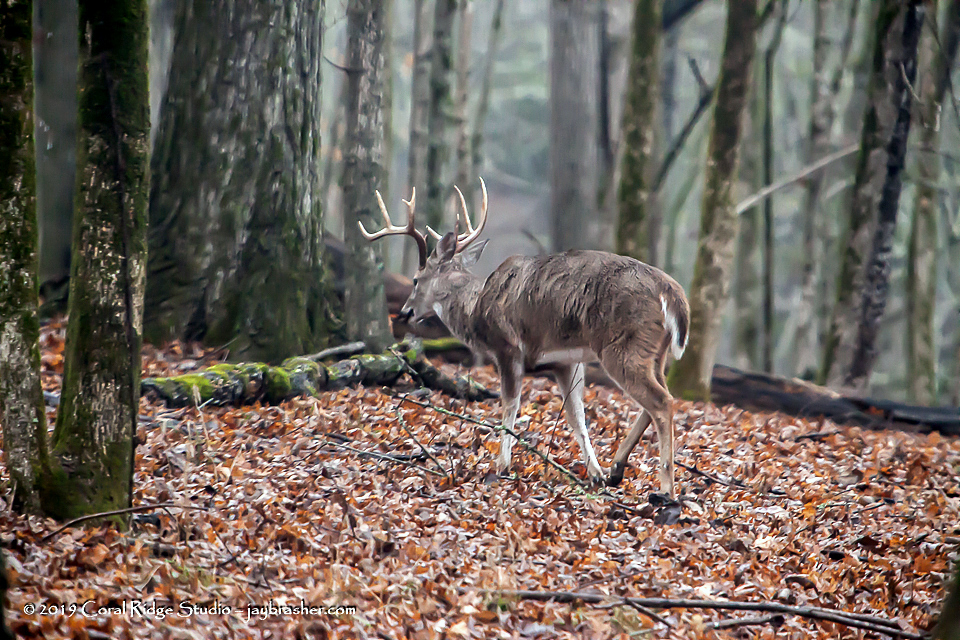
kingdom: Animalia
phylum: Chordata
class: Mammalia
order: Artiodactyla
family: Cervidae
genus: Odocoileus
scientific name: Odocoileus virginianus
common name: White-tailed deer
